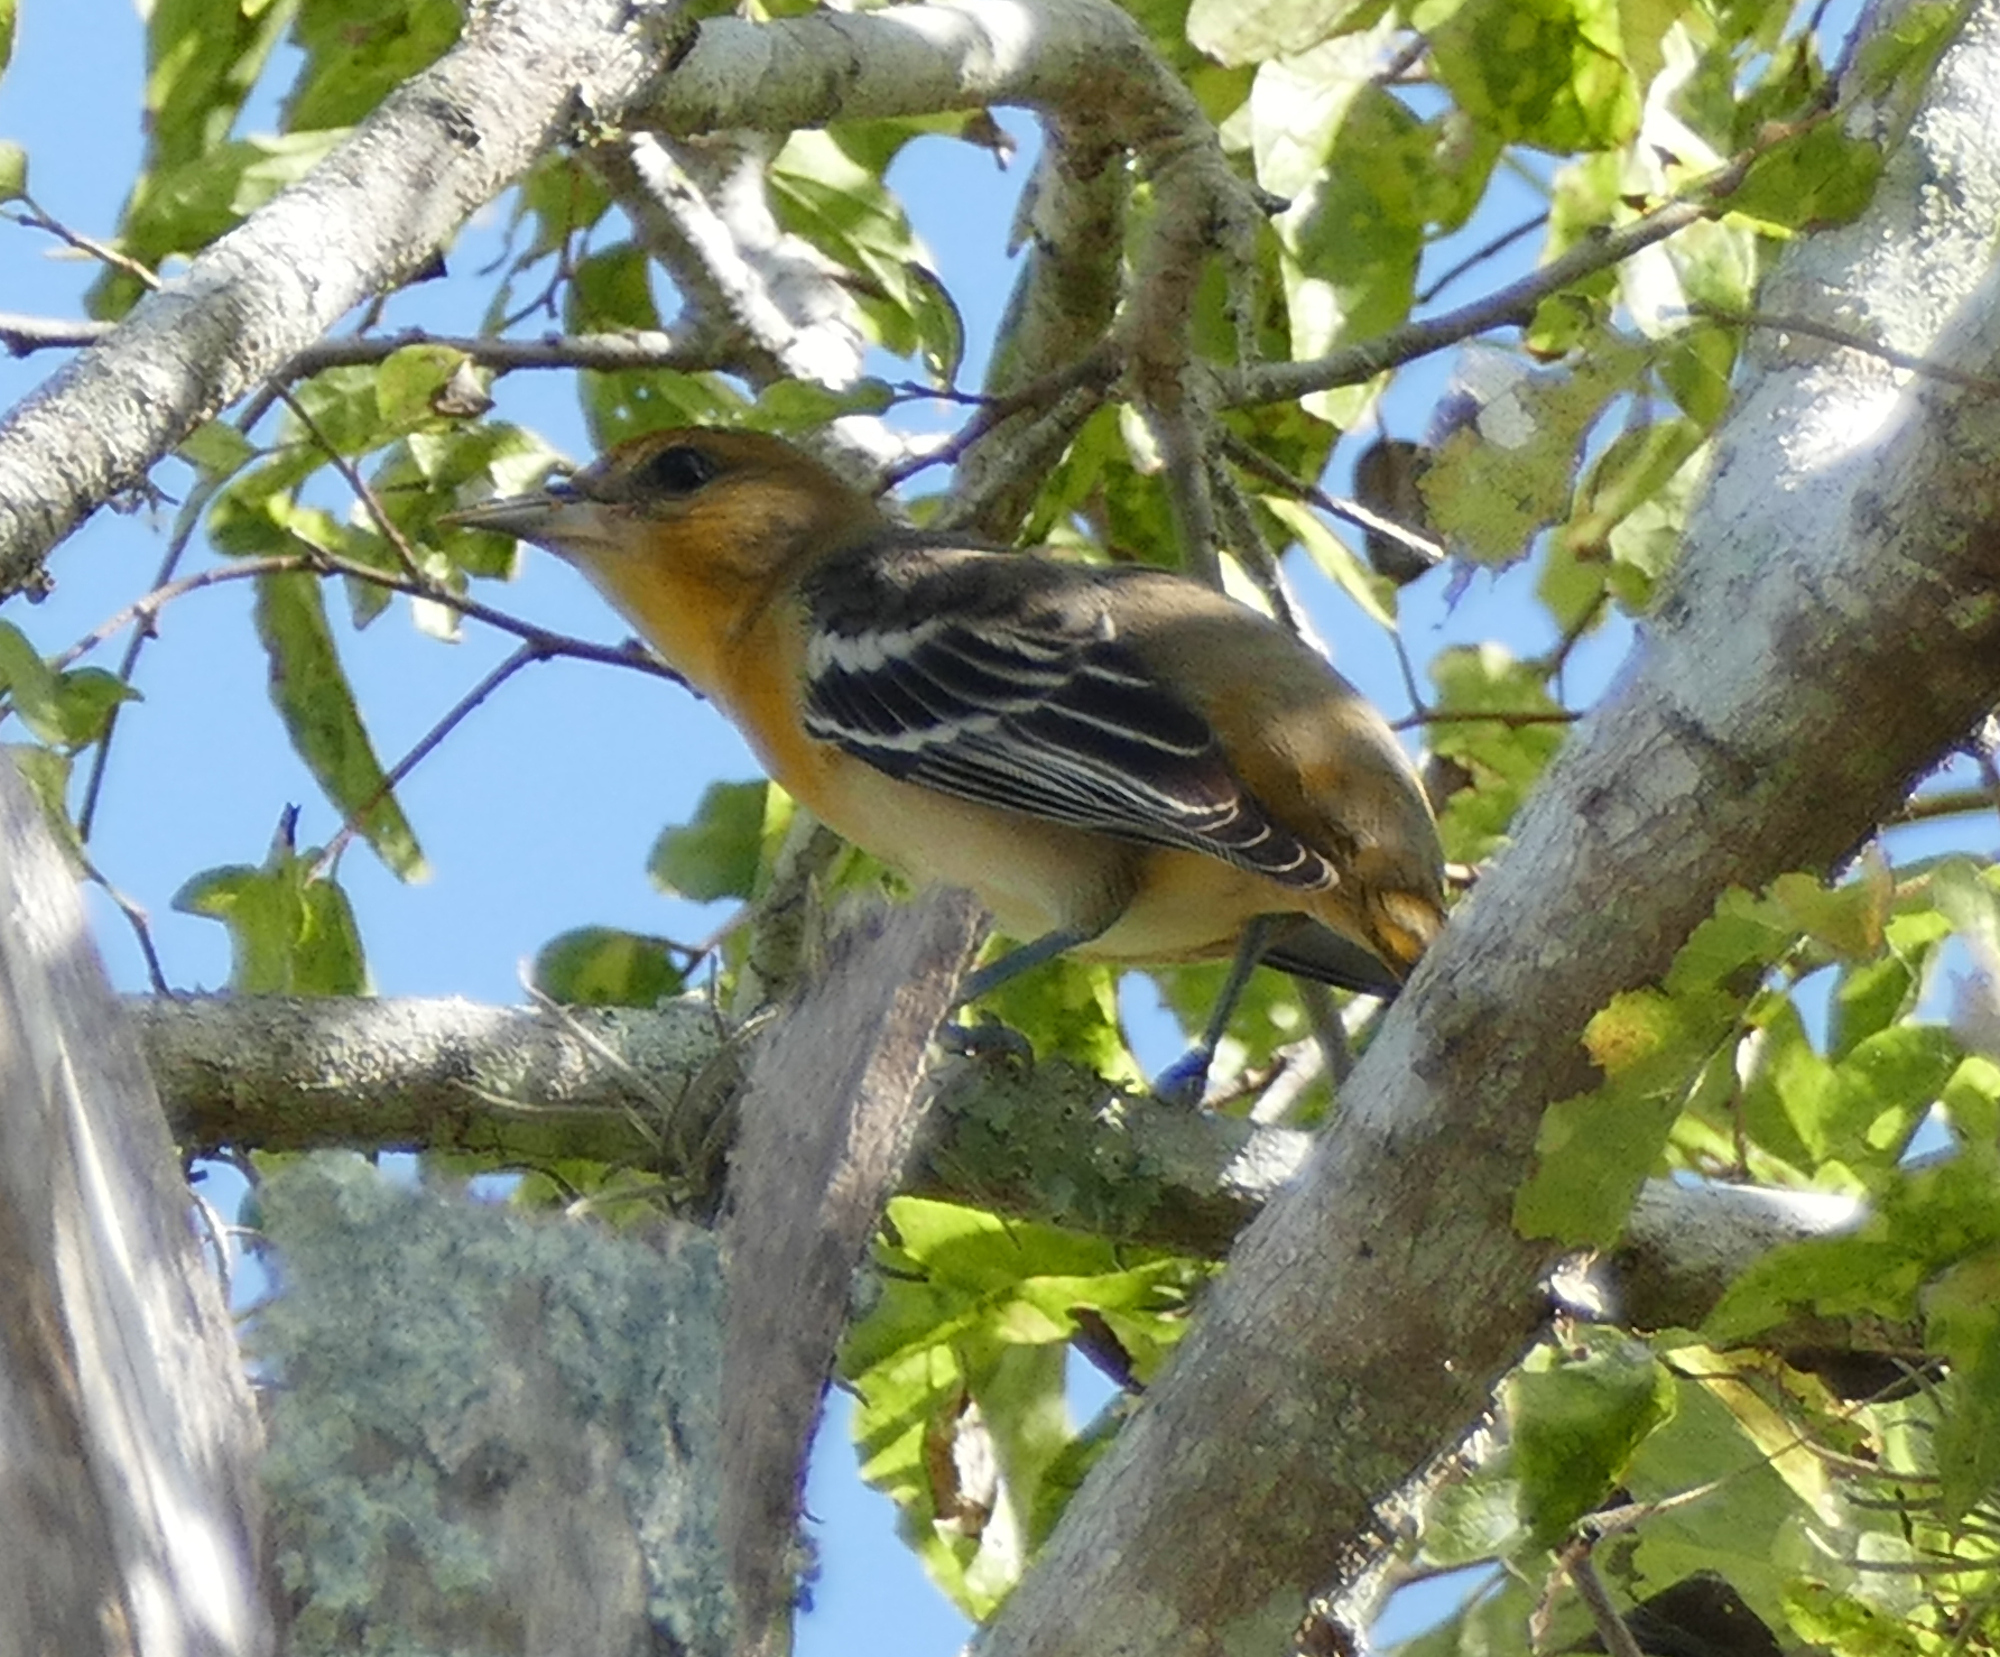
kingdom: Animalia
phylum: Chordata
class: Aves
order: Passeriformes
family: Icteridae
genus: Icterus
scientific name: Icterus galbula
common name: Baltimore oriole
